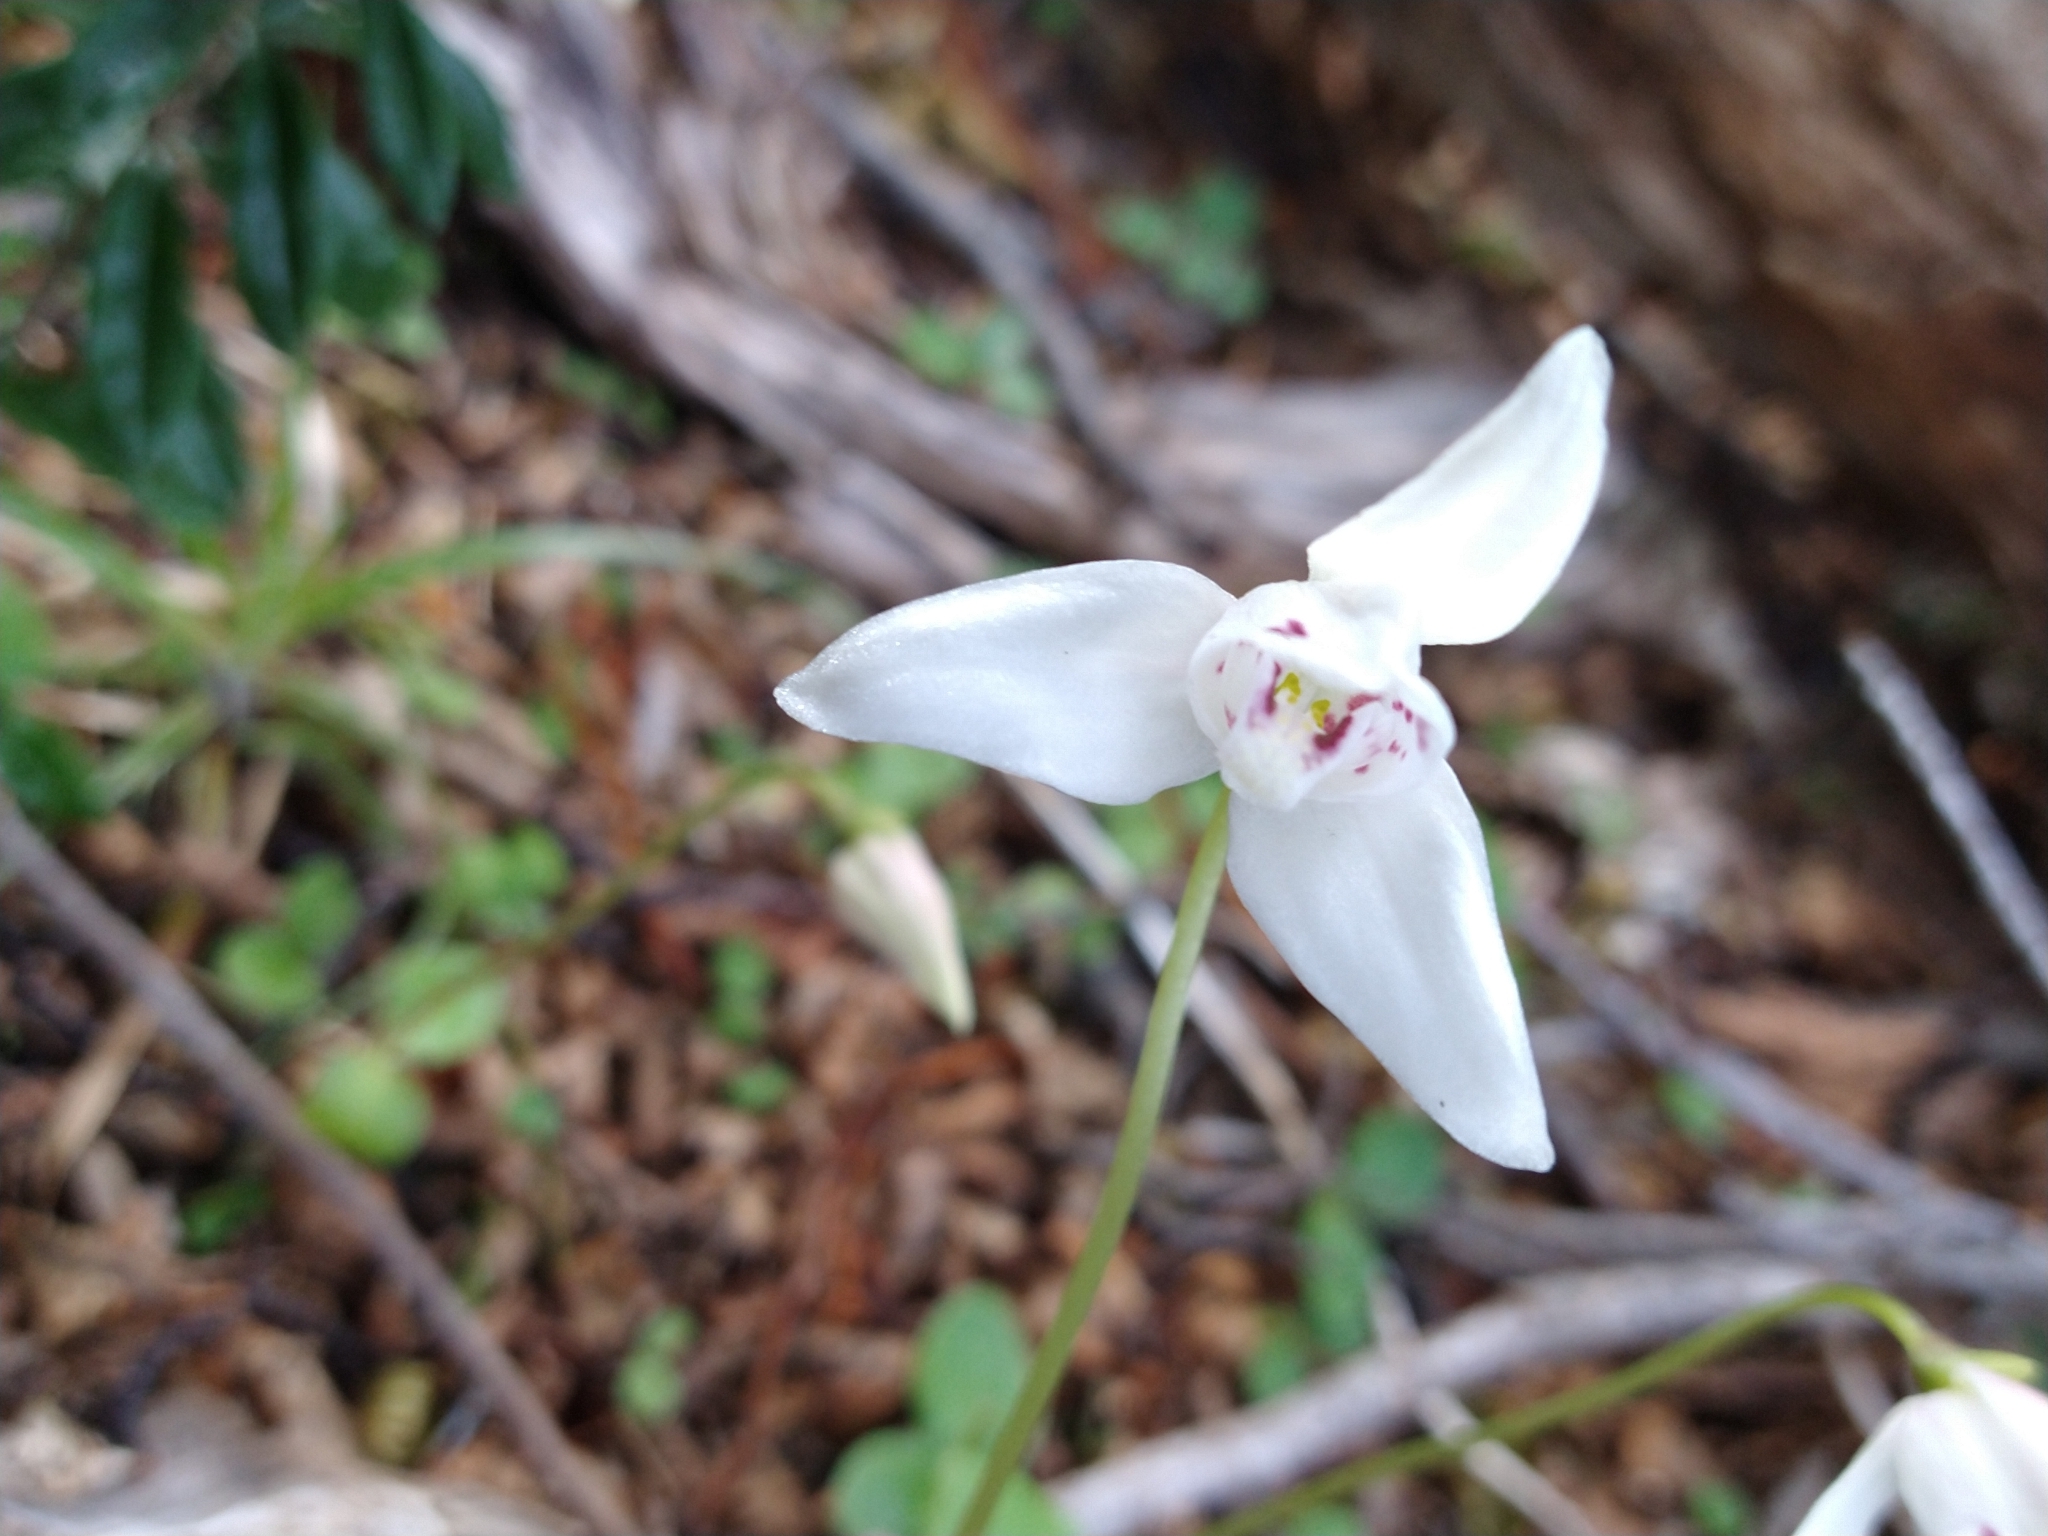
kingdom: Plantae
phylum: Tracheophyta
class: Liliopsida
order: Asparagales
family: Orchidaceae
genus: Codonorchis
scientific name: Codonorchis lessonii
